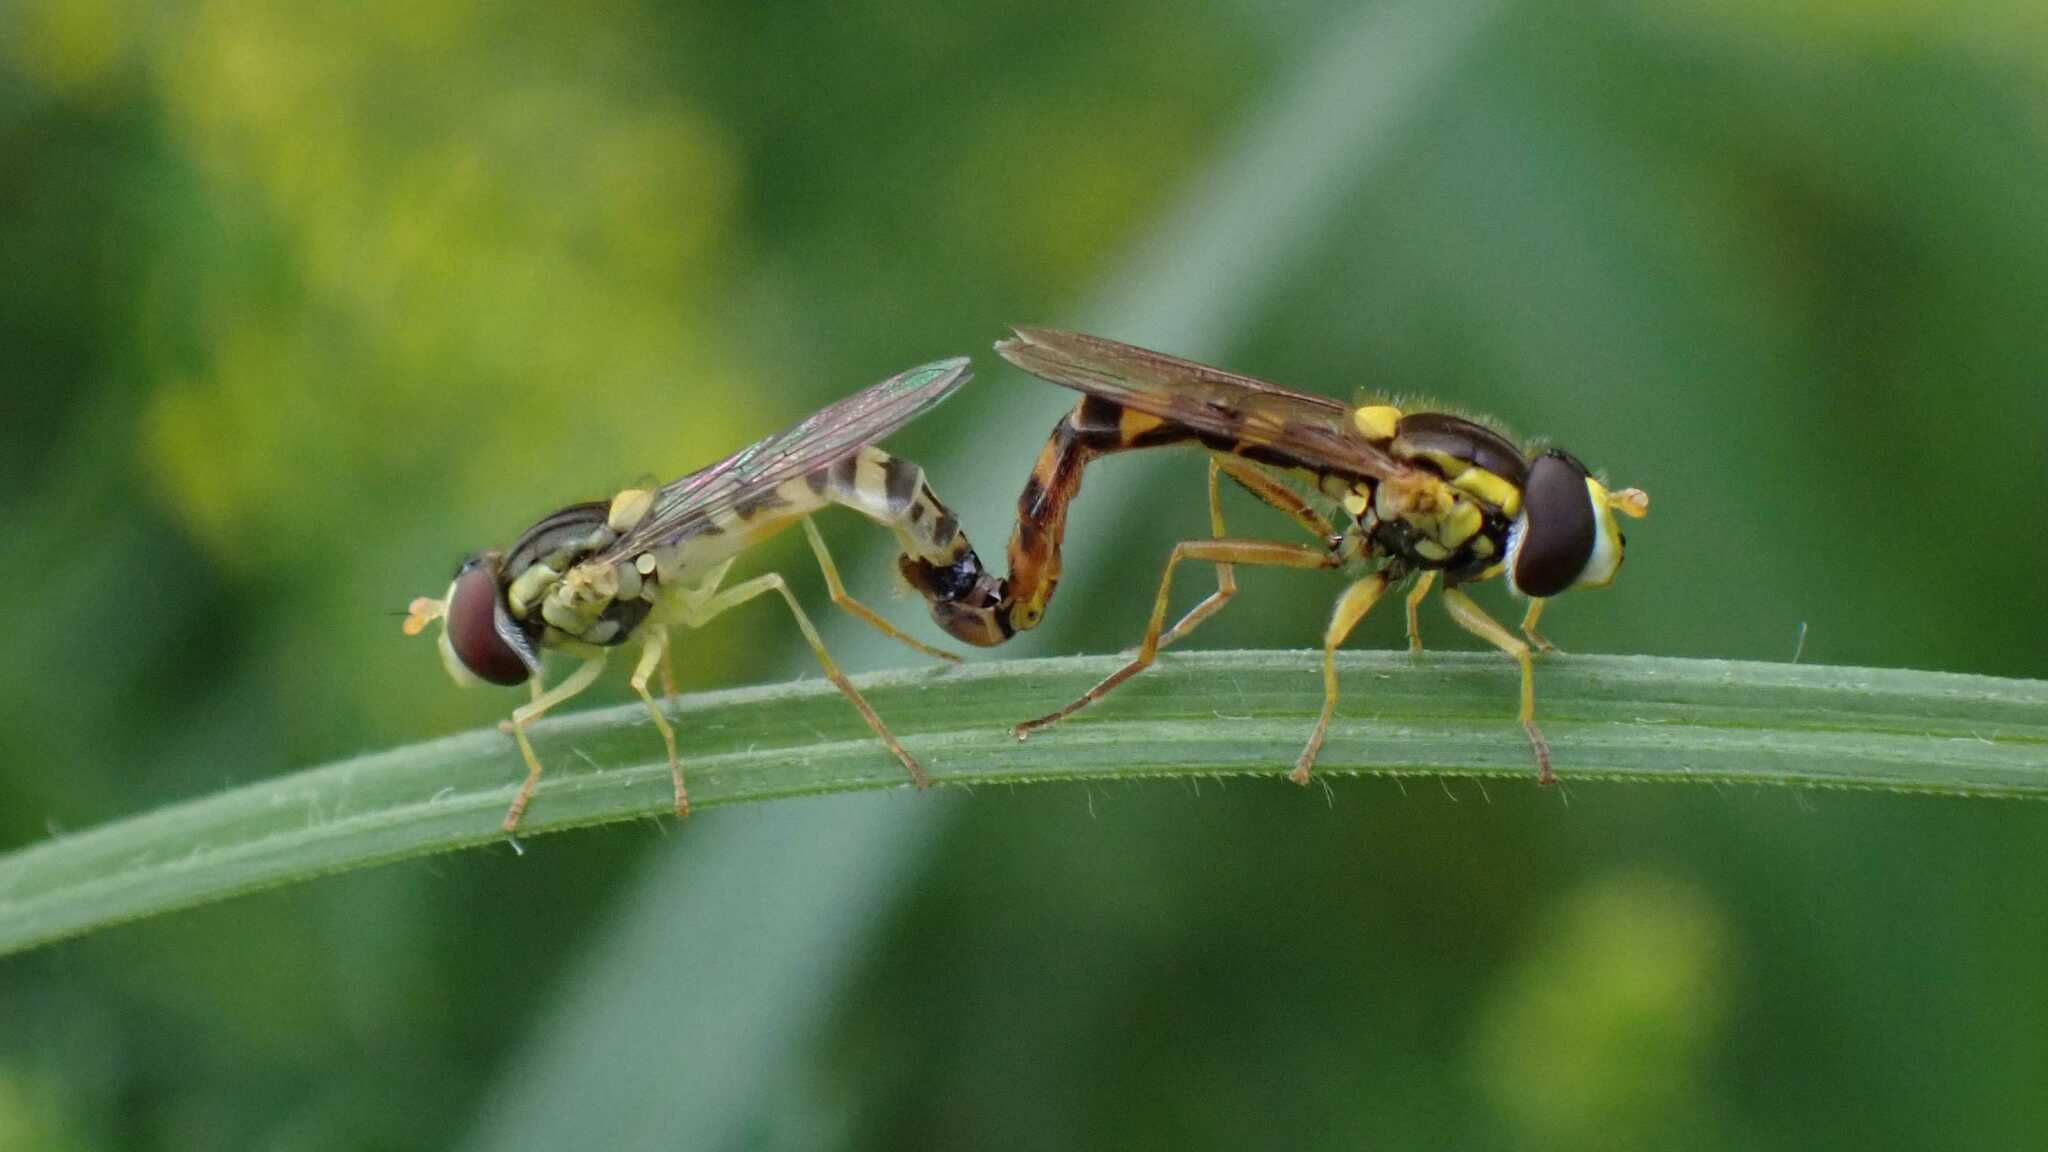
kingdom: Animalia
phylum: Arthropoda
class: Insecta
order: Diptera
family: Syrphidae
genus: Sphaerophoria
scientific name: Sphaerophoria scripta
